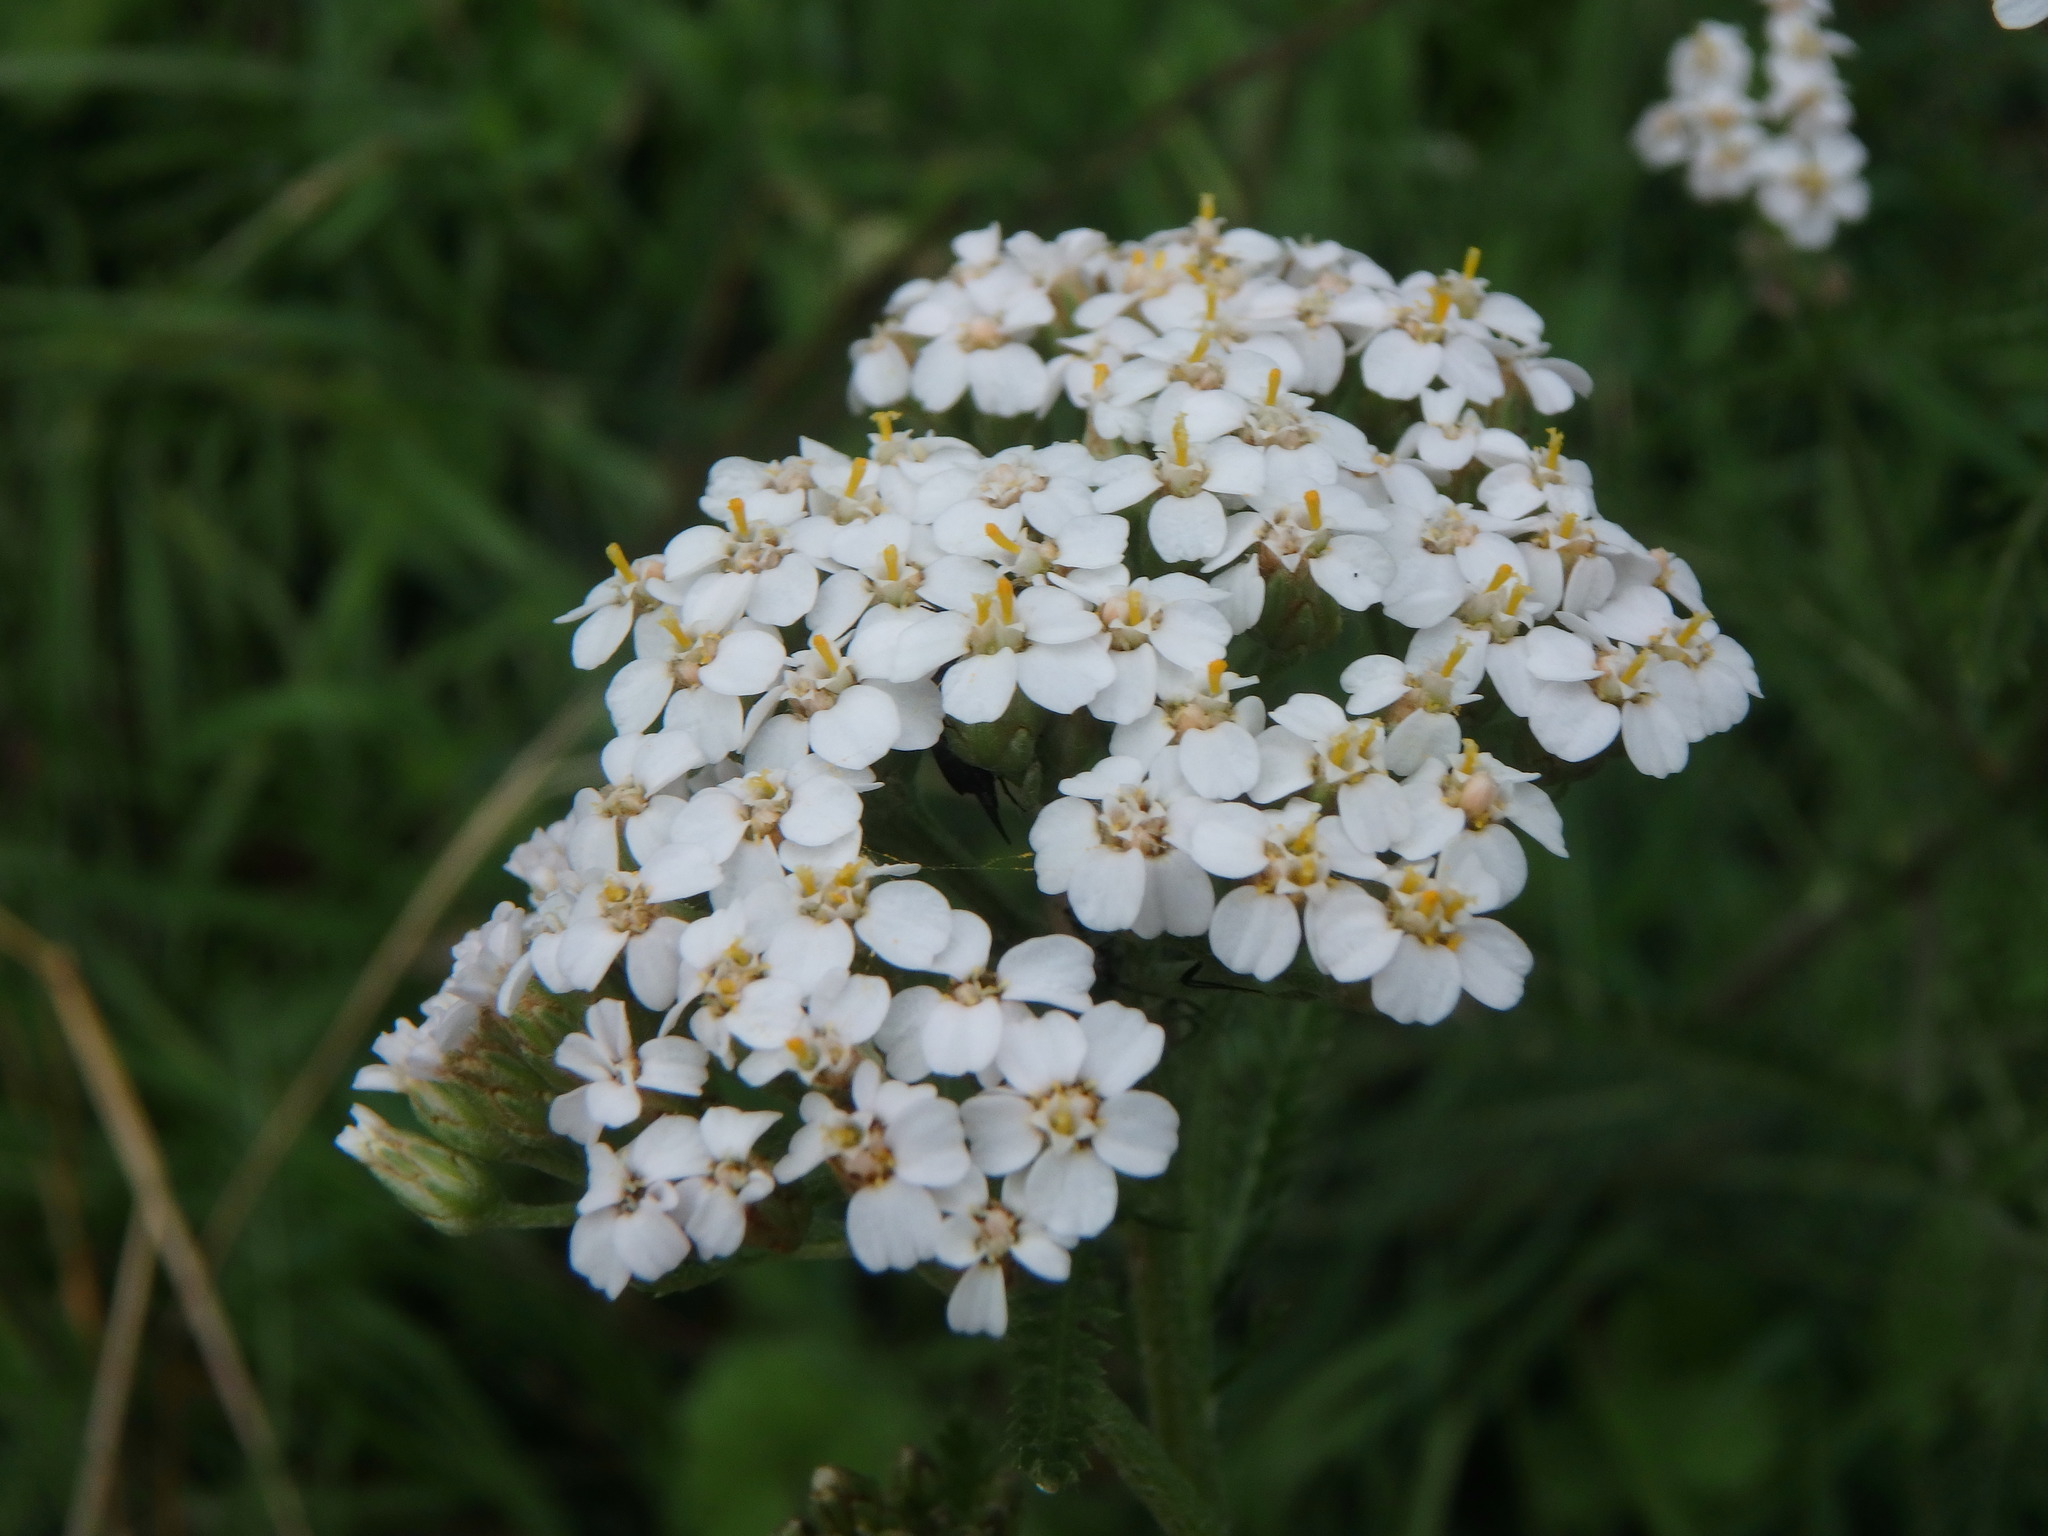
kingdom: Plantae
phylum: Tracheophyta
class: Magnoliopsida
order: Asterales
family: Asteraceae
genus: Achillea
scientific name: Achillea millefolium
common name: Yarrow
